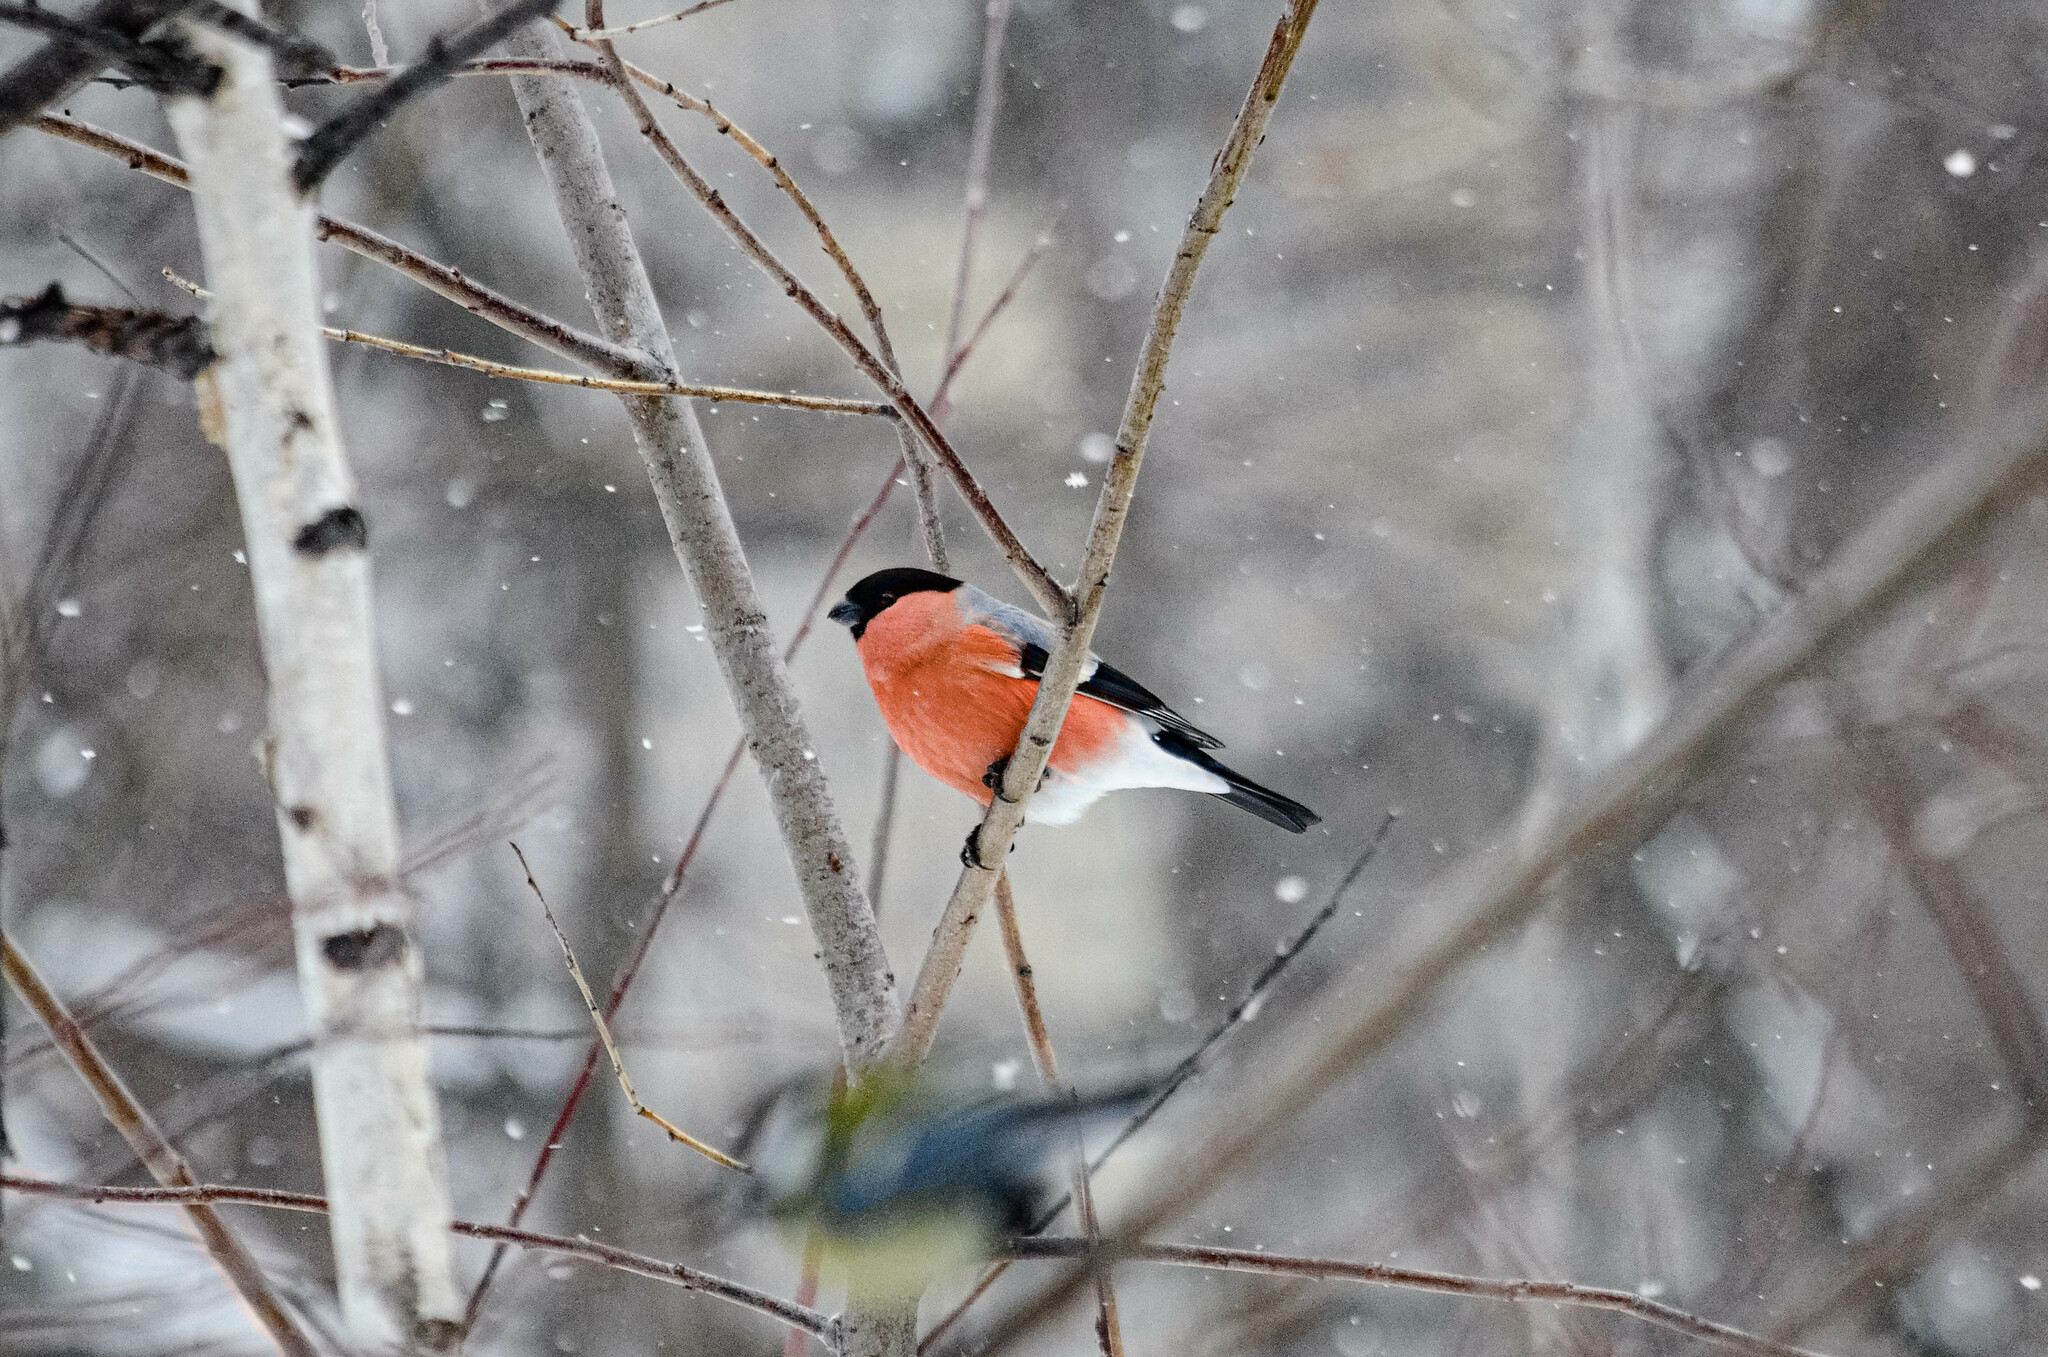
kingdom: Animalia
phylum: Chordata
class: Aves
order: Passeriformes
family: Fringillidae
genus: Pyrrhula
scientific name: Pyrrhula pyrrhula
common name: Eurasian bullfinch
